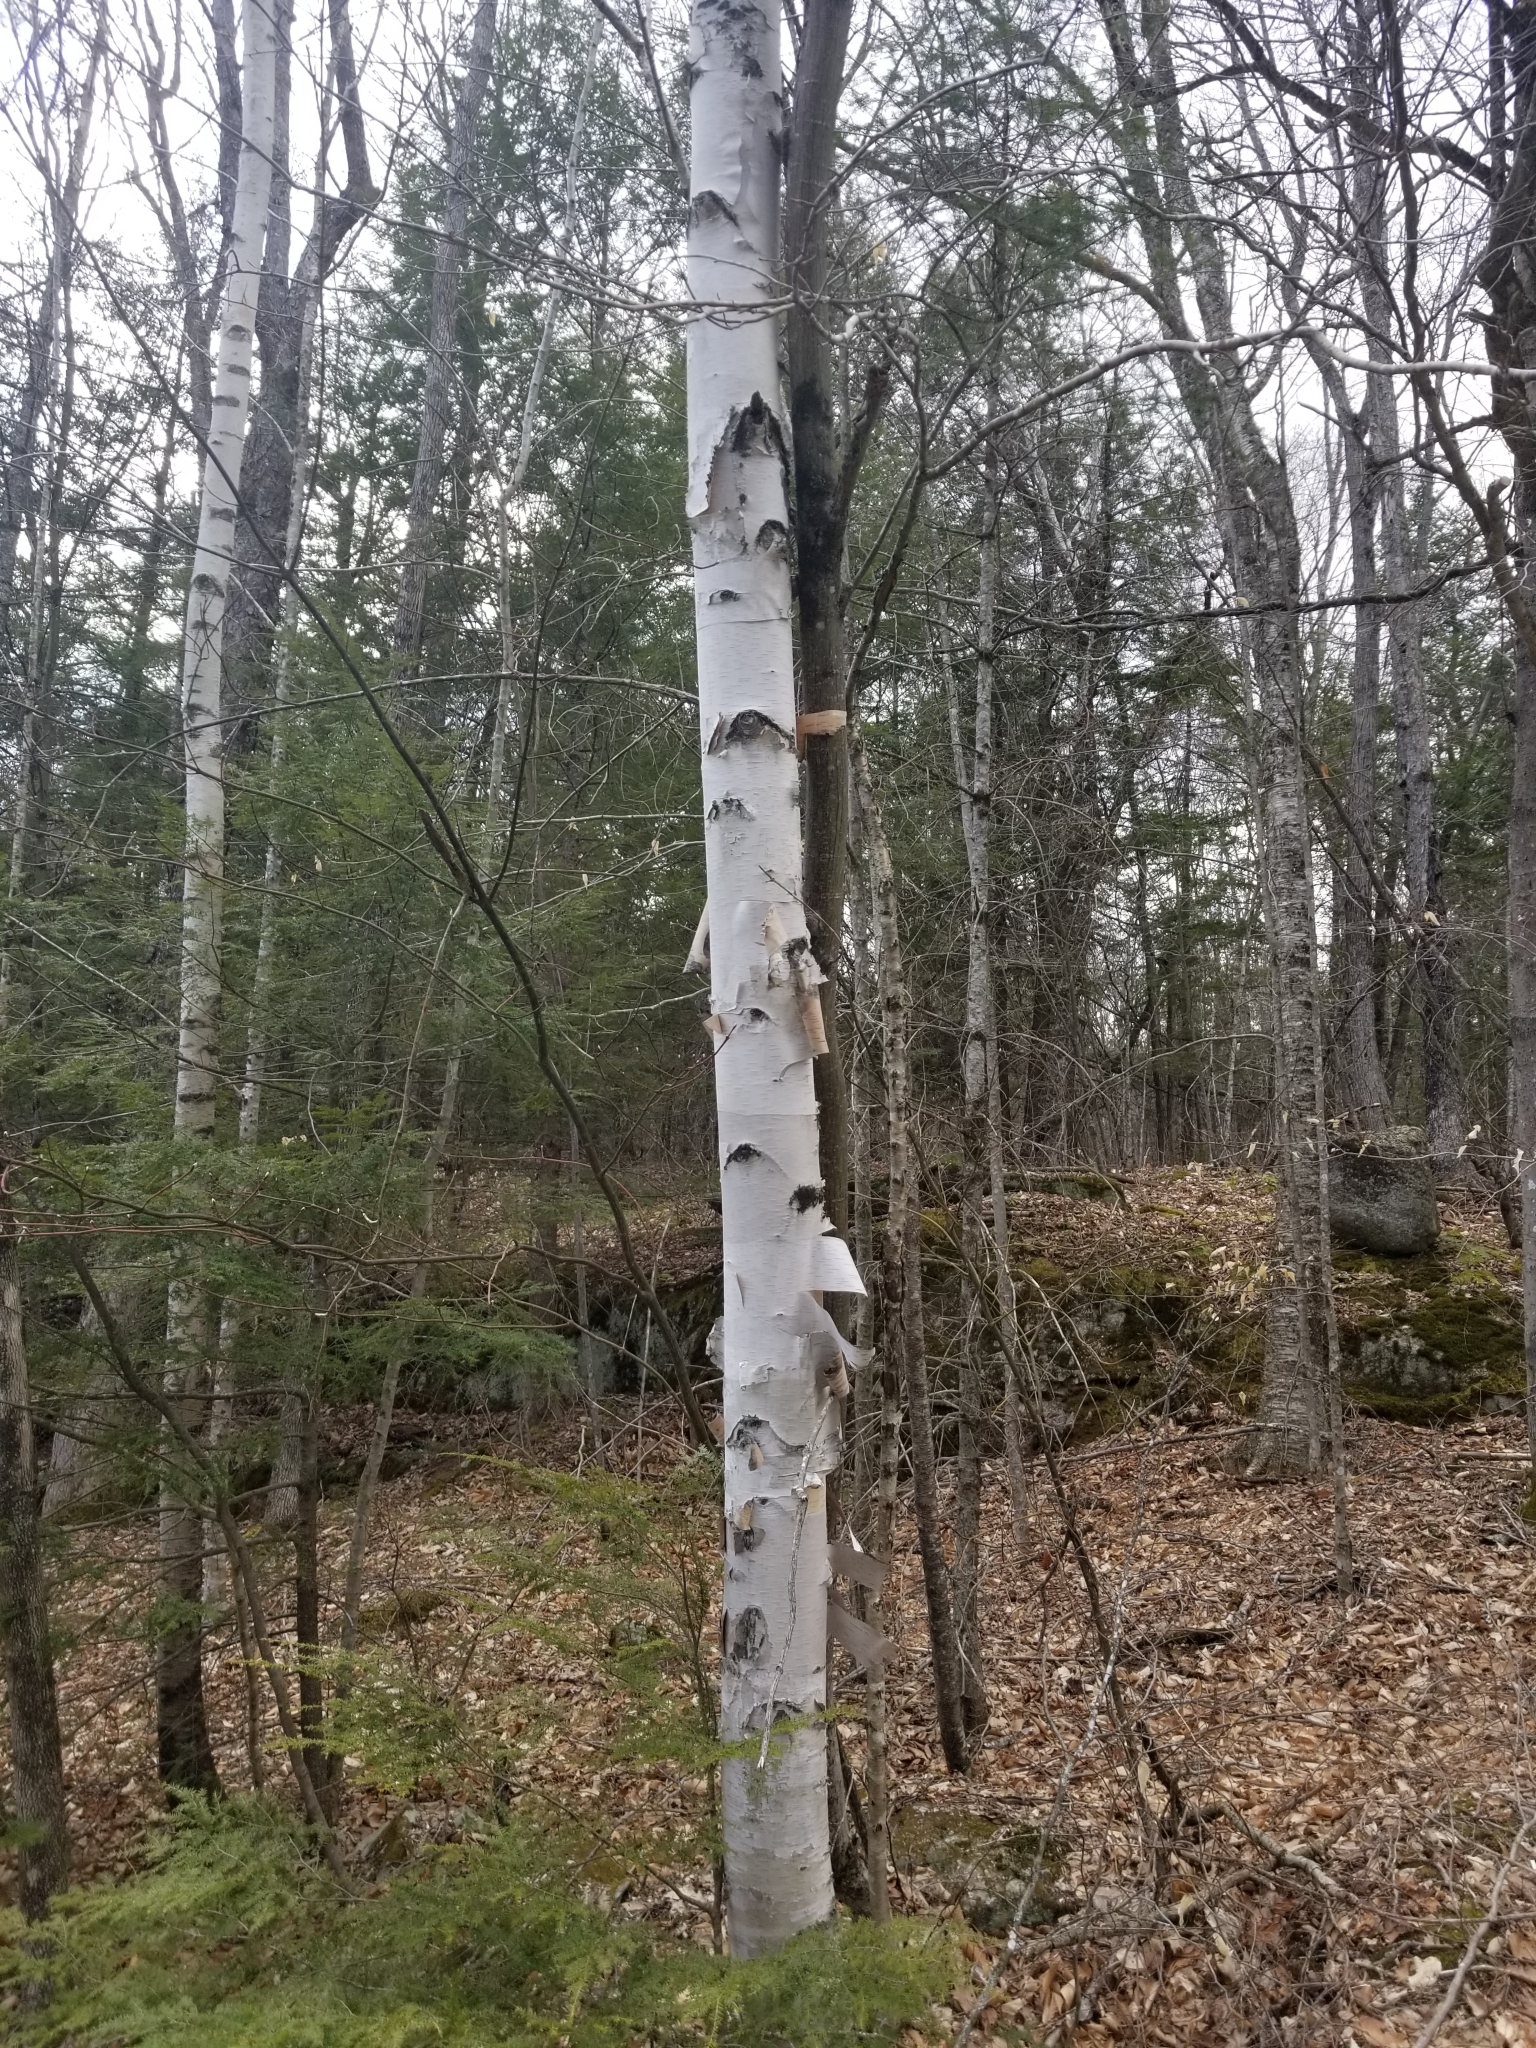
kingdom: Plantae
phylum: Tracheophyta
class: Magnoliopsida
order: Fagales
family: Betulaceae
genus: Betula
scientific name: Betula papyrifera
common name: Paper birch
